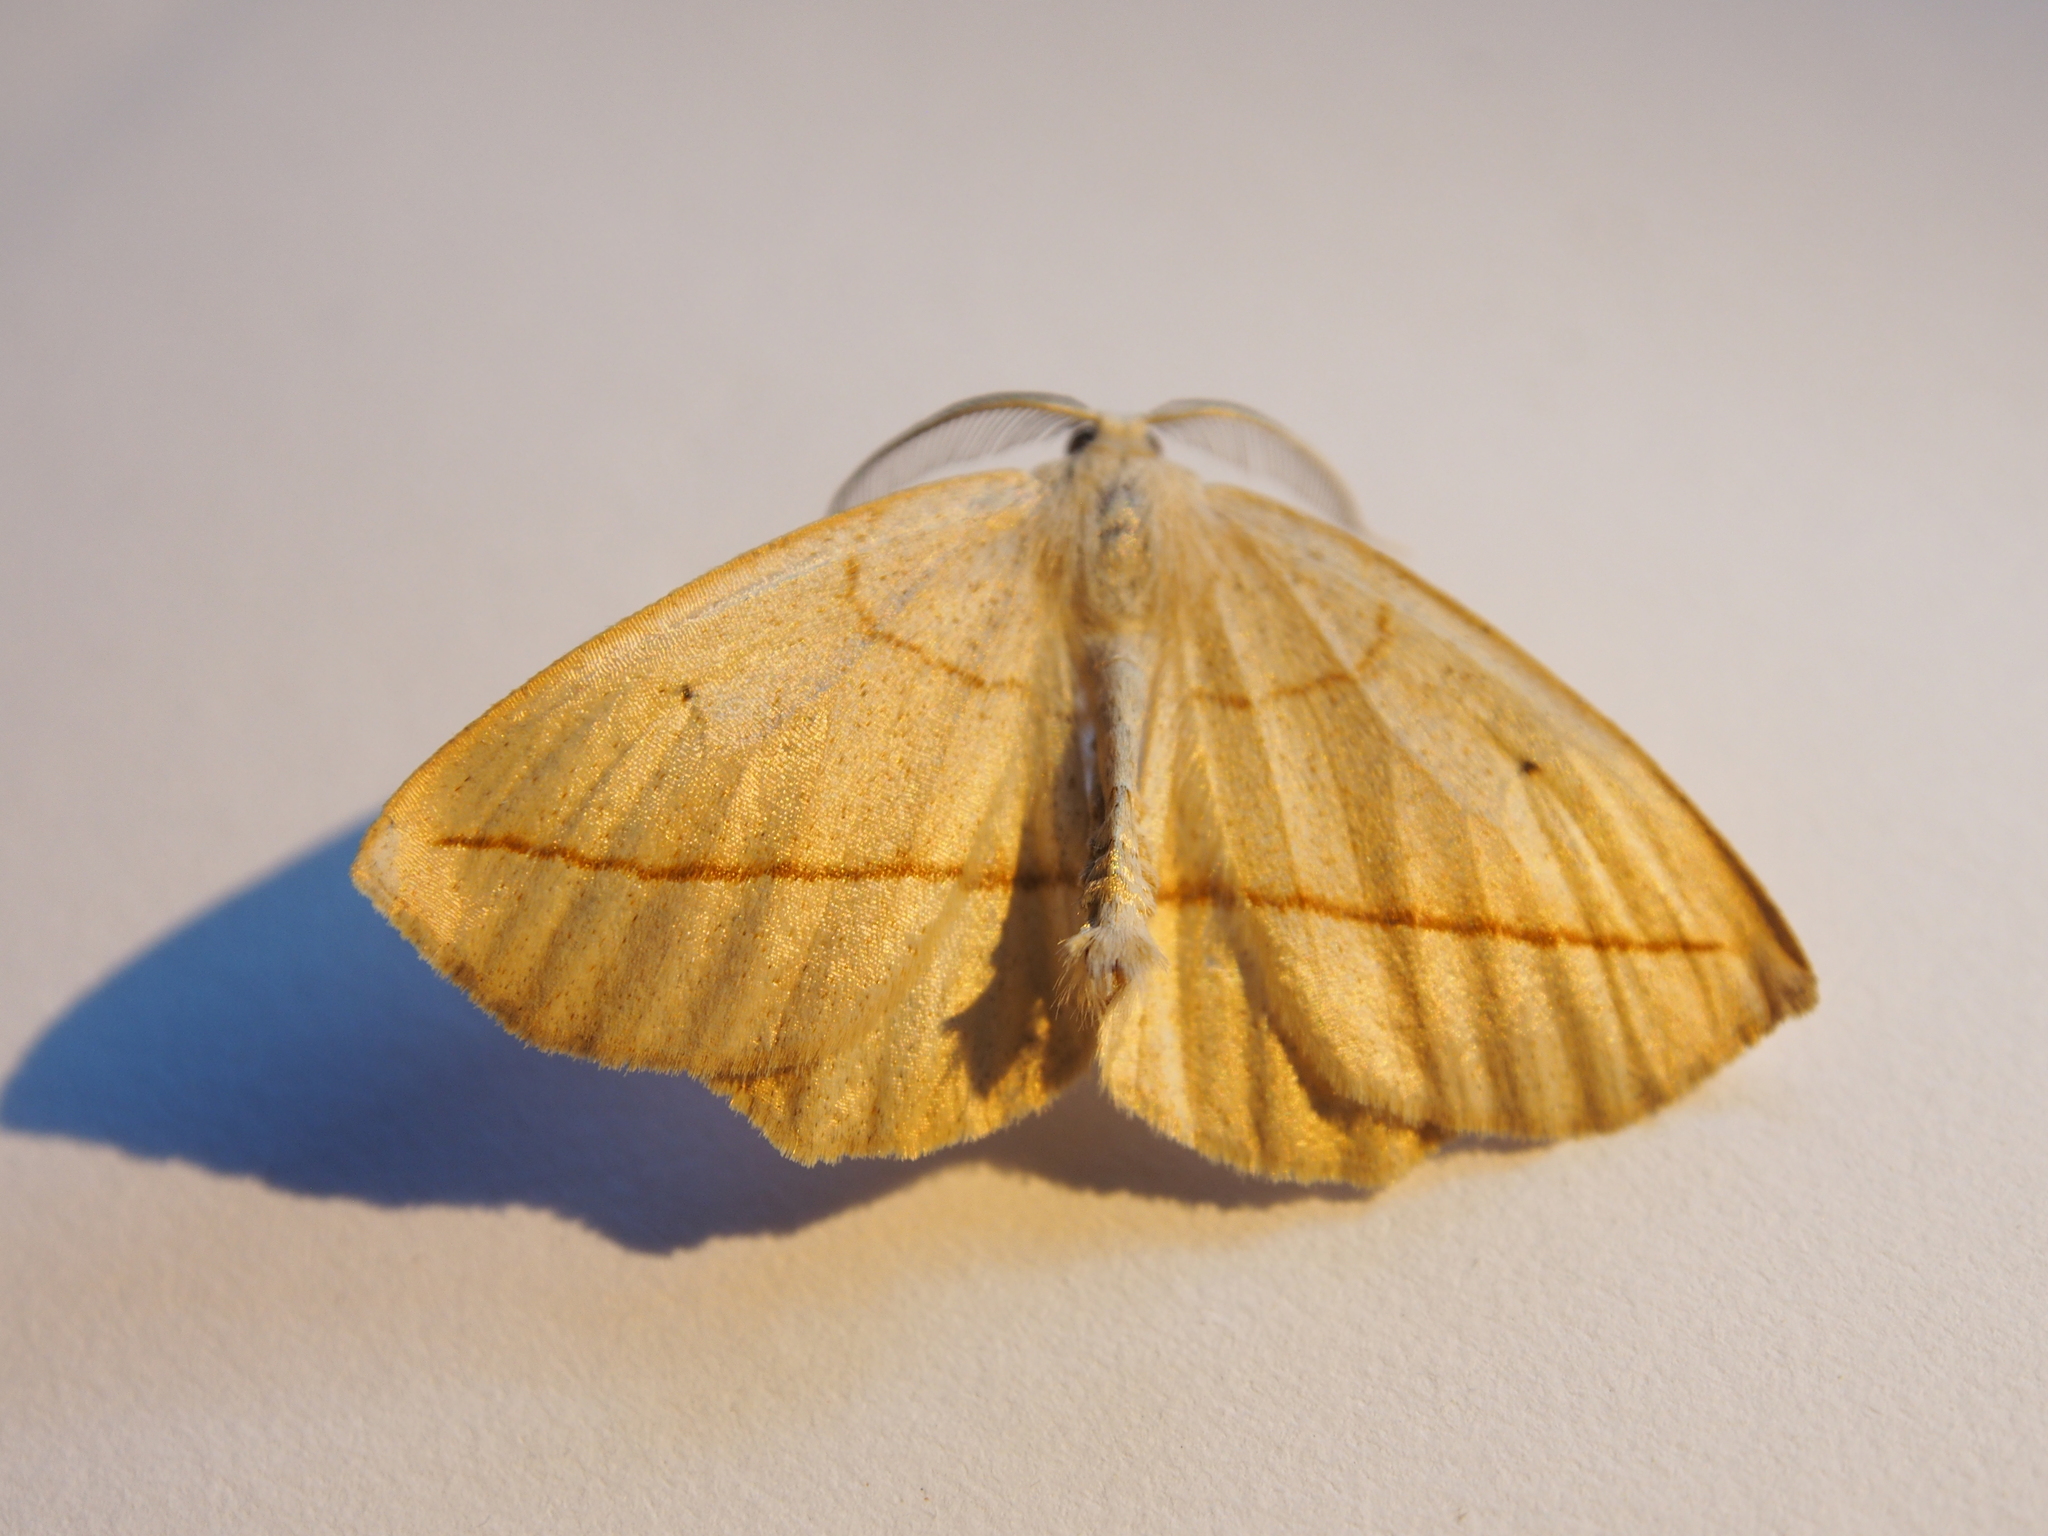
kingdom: Animalia
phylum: Arthropoda
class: Insecta
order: Lepidoptera
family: Geometridae
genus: Eusarca
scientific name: Eusarca confusaria
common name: Confused eusarca
